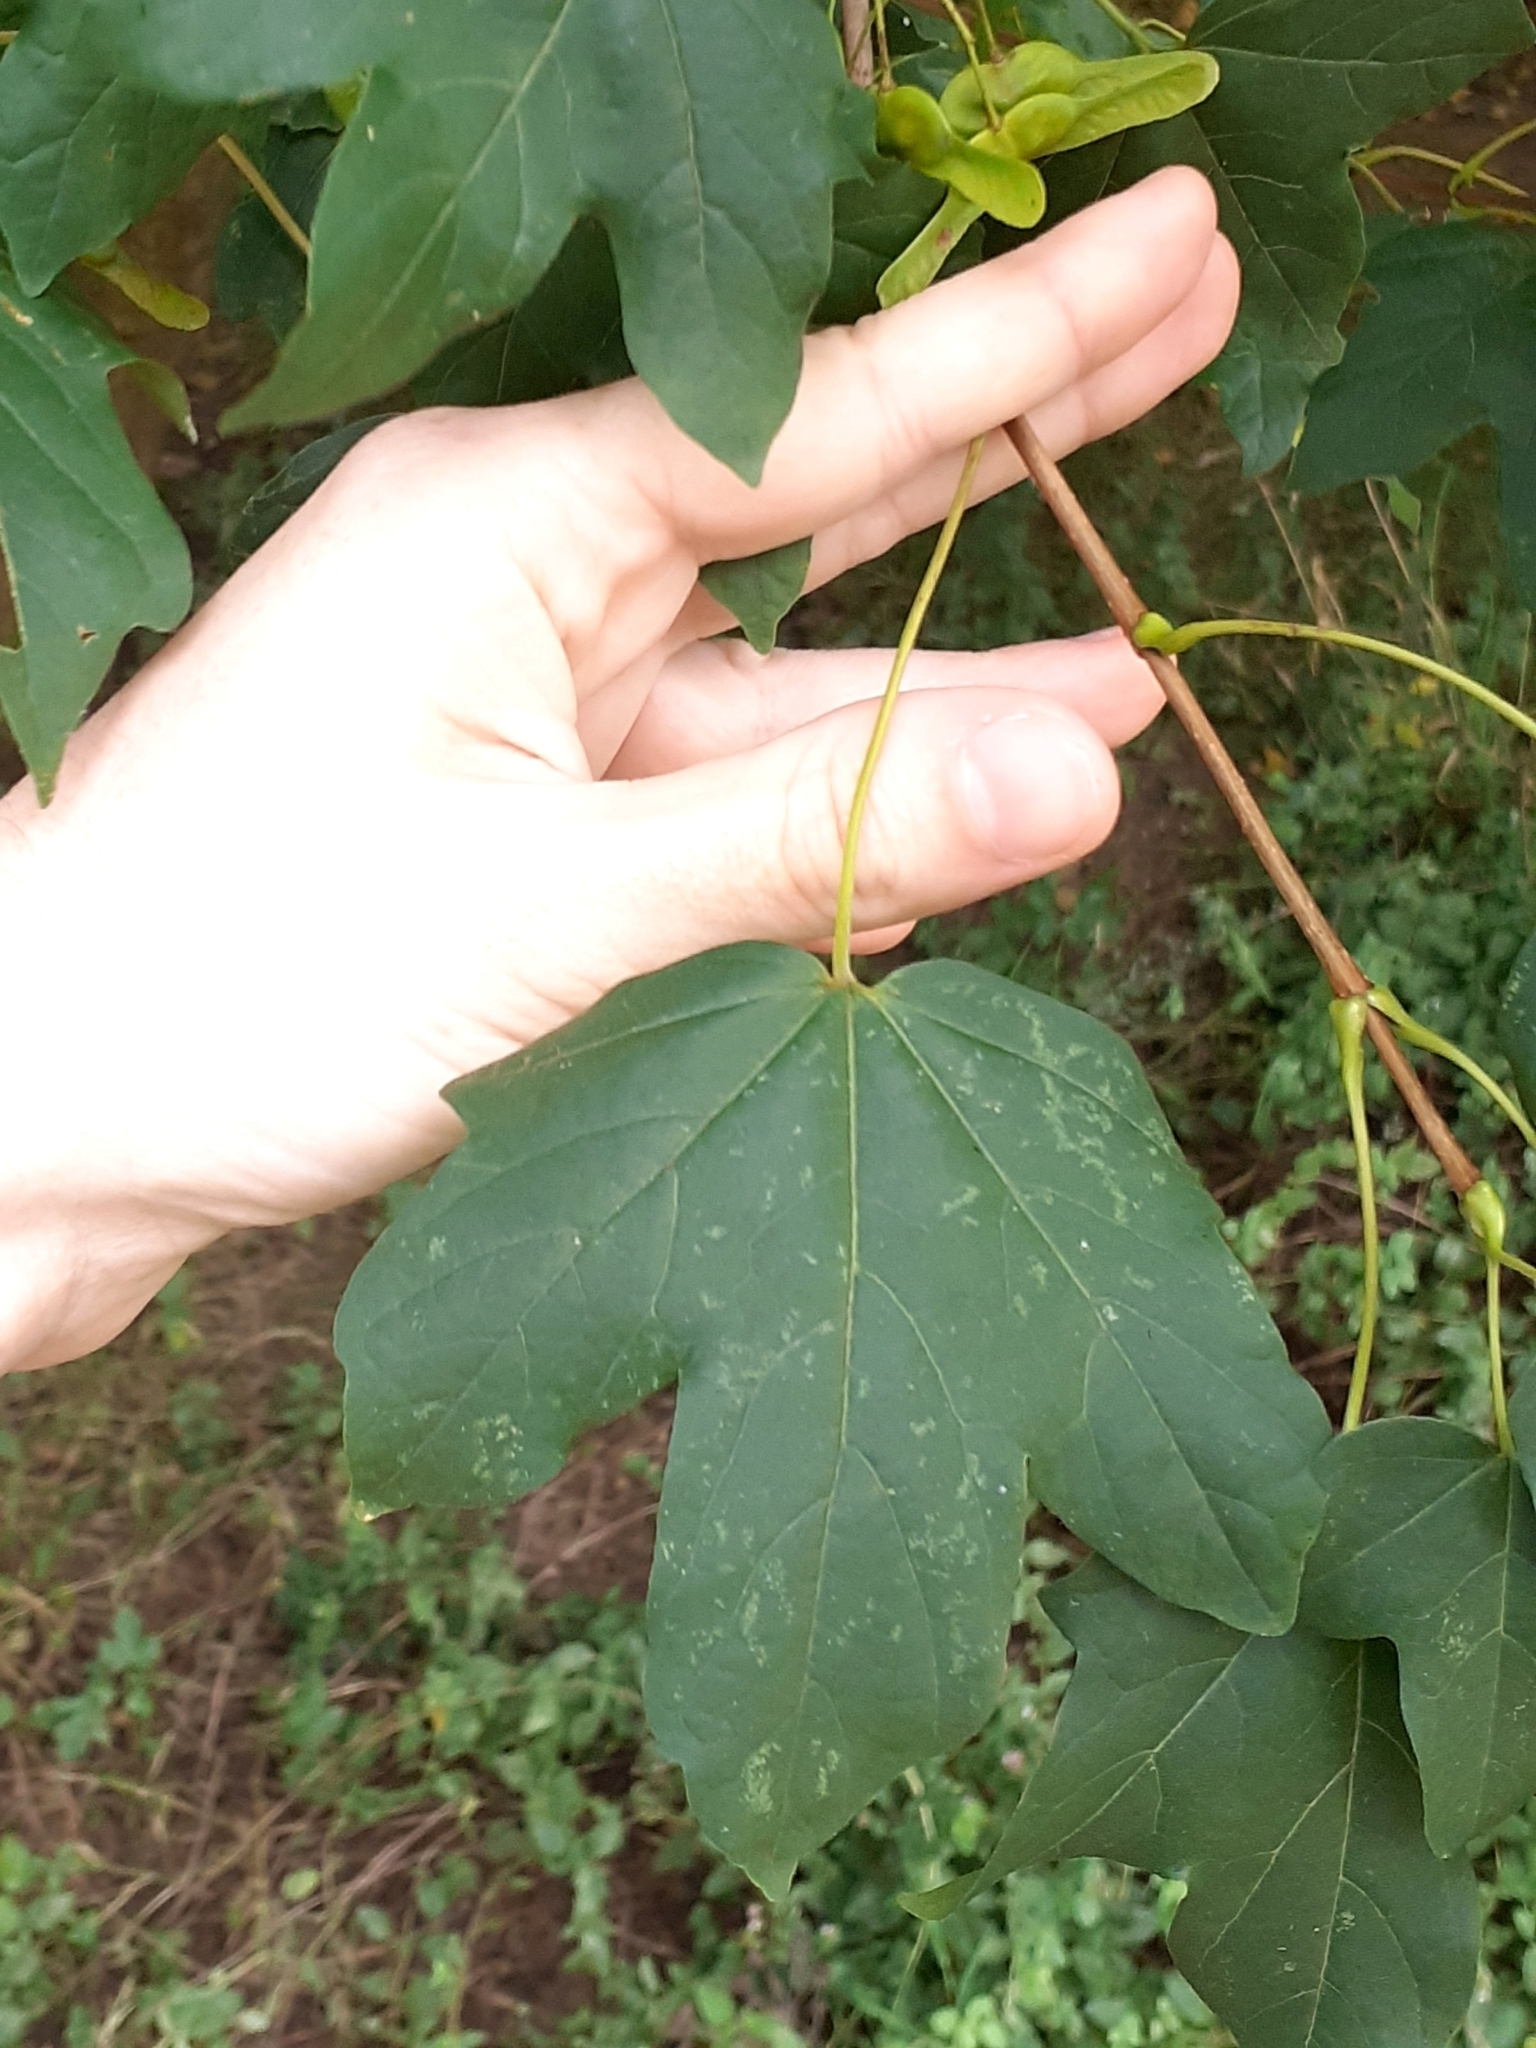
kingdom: Plantae
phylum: Tracheophyta
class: Magnoliopsida
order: Sapindales
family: Sapindaceae
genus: Acer
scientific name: Acer campestre
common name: Field maple
